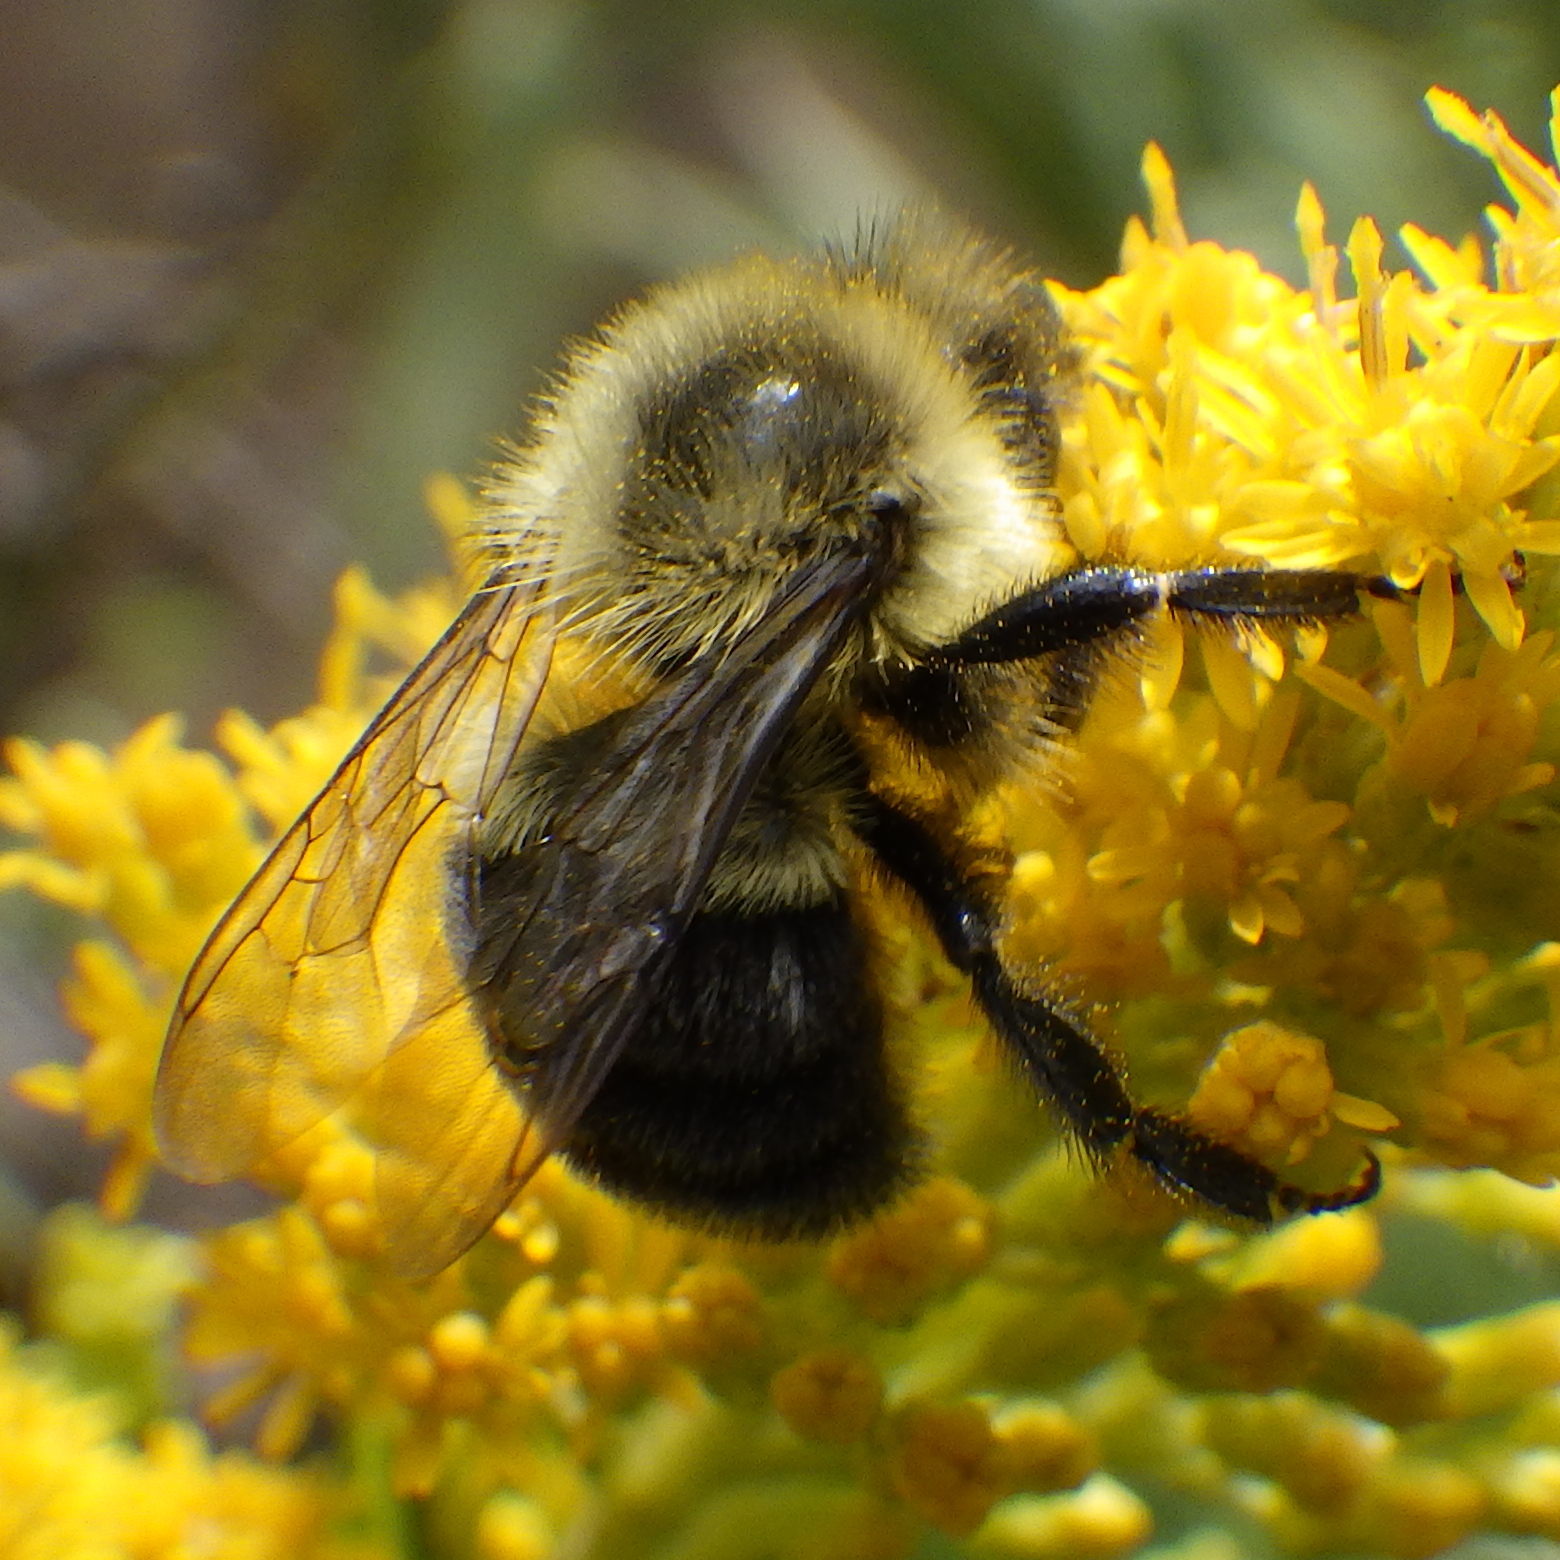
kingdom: Animalia
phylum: Arthropoda
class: Insecta
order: Hymenoptera
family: Apidae
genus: Bombus
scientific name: Bombus impatiens
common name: Common eastern bumble bee
